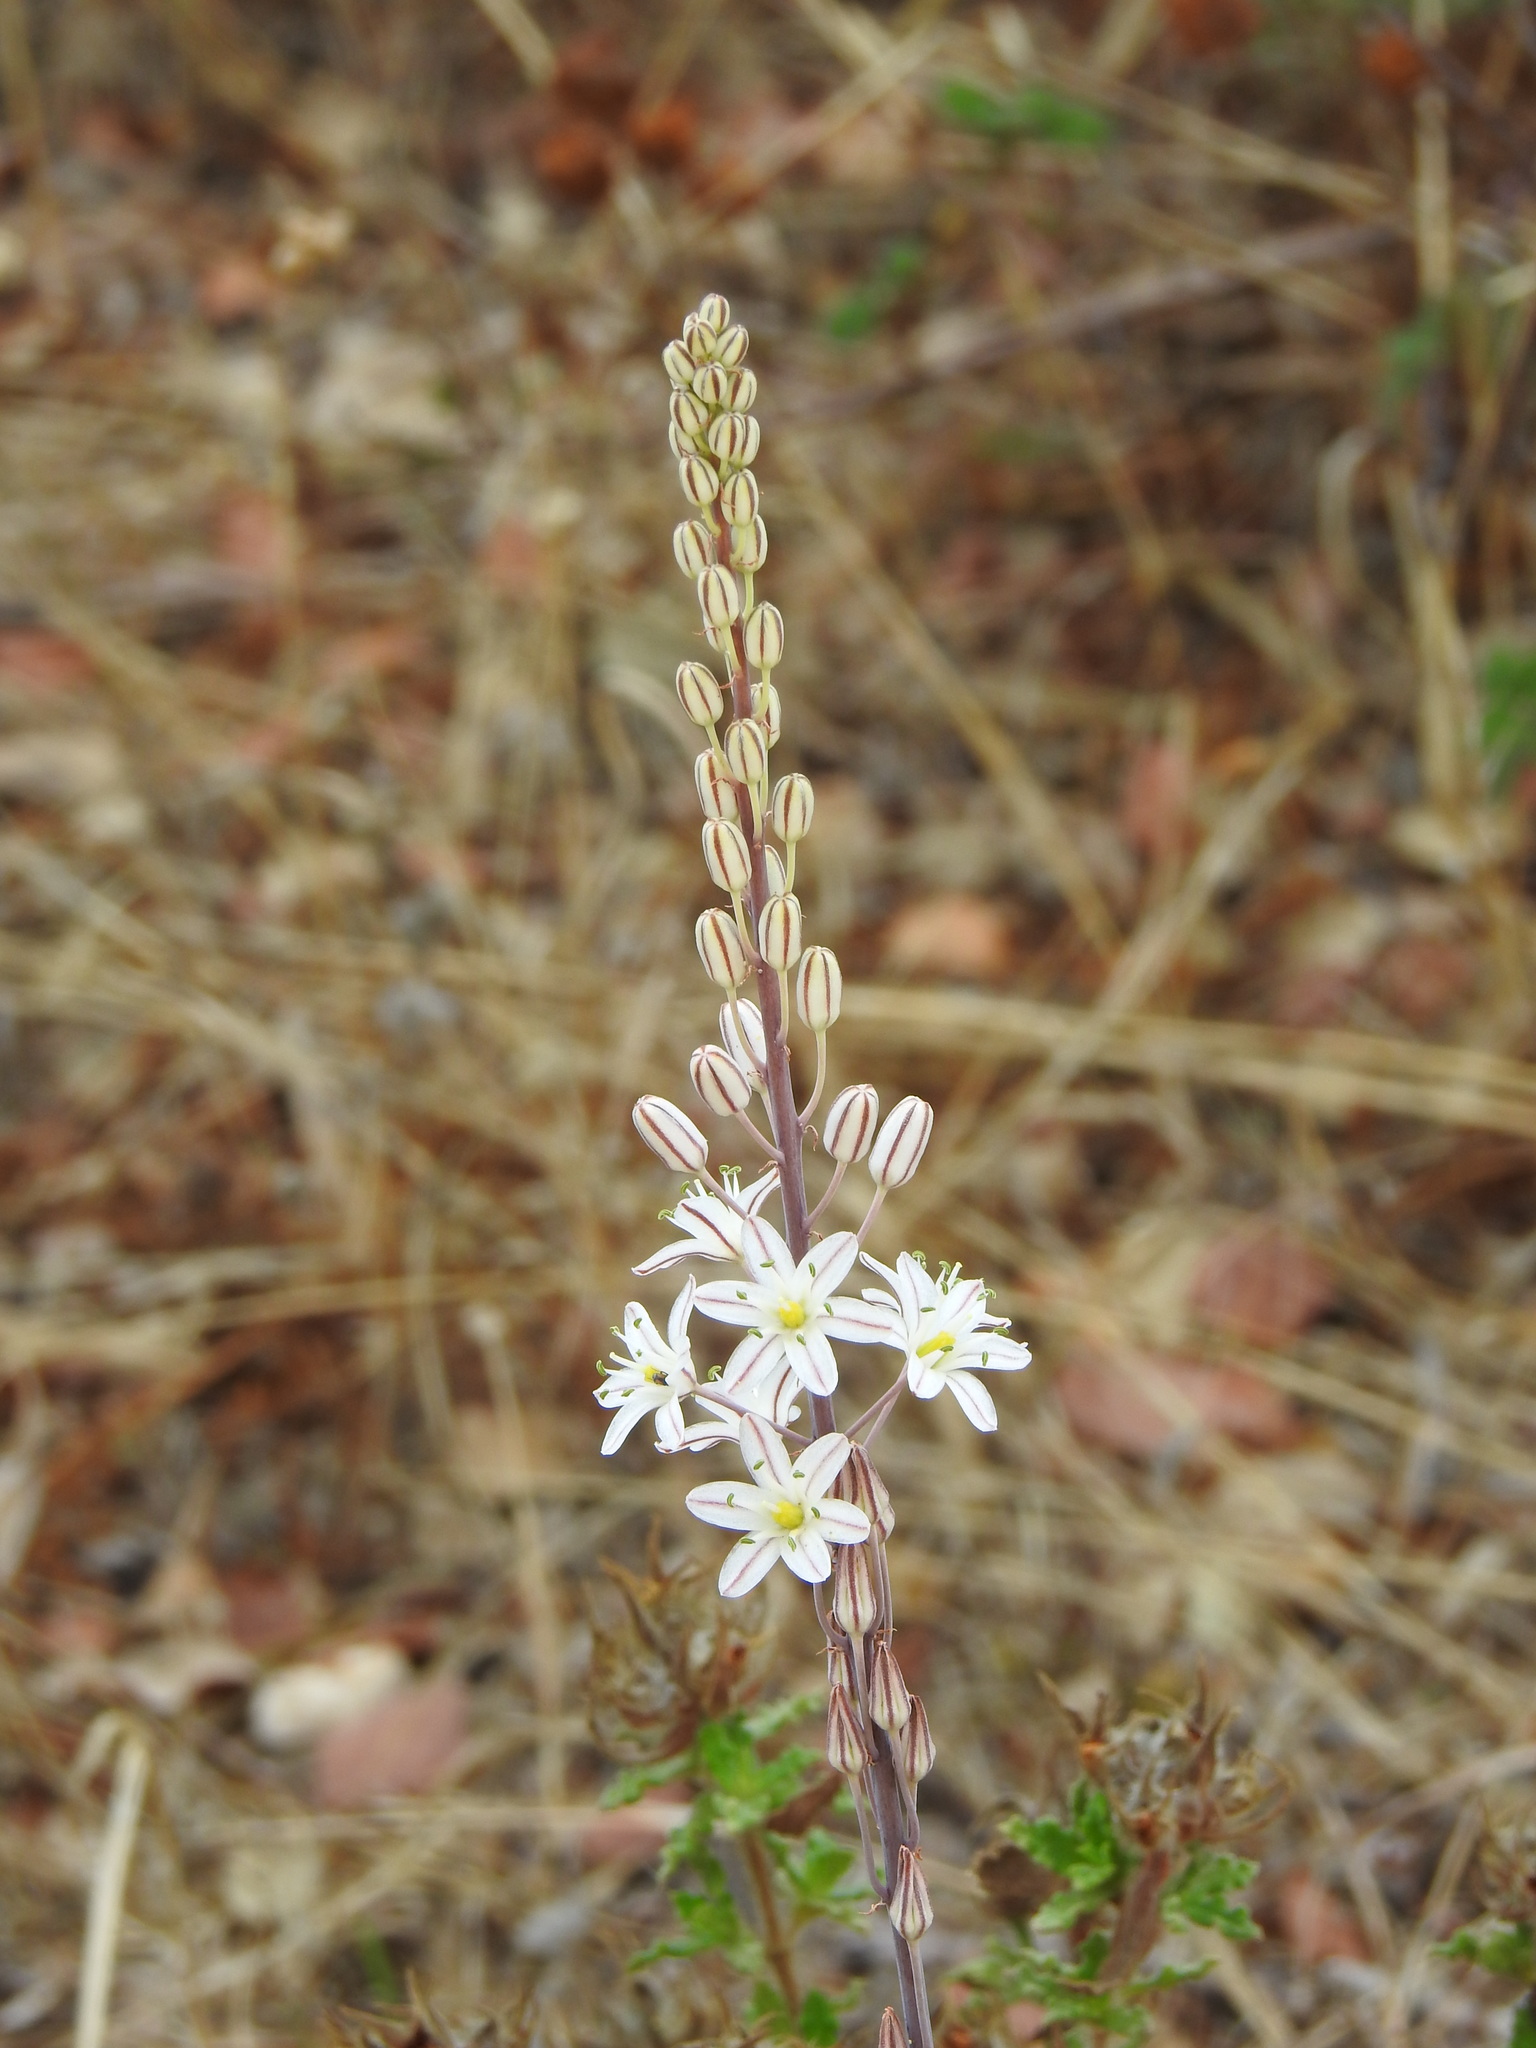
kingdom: Plantae
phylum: Tracheophyta
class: Liliopsida
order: Asparagales
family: Asparagaceae
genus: Drimia
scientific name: Drimia maritima
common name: Maritime squill
